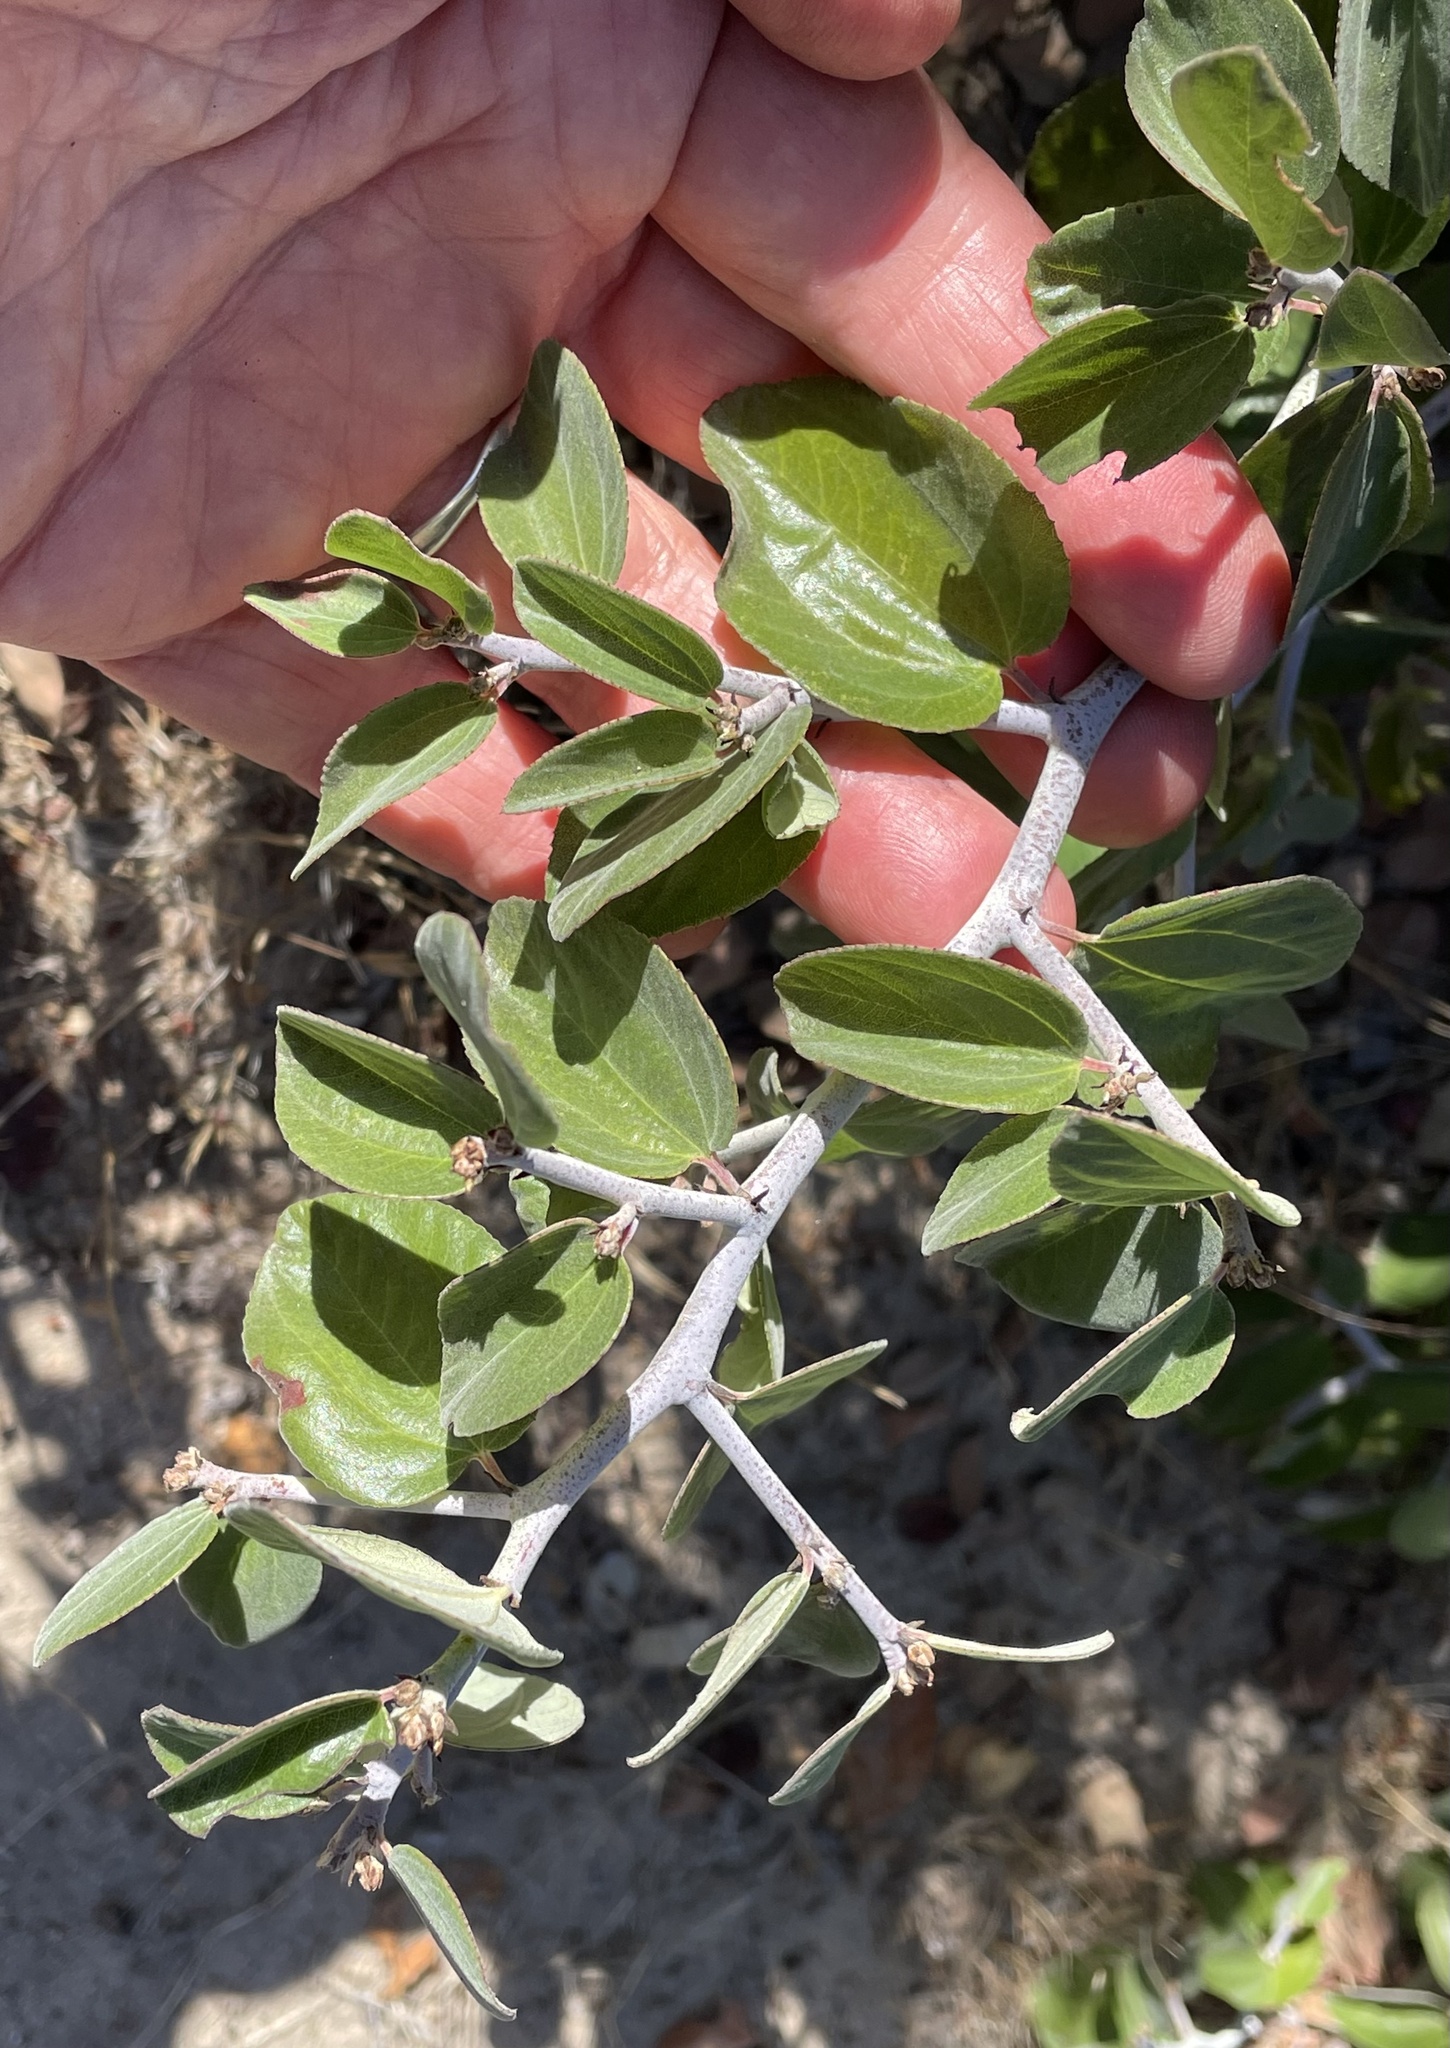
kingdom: Plantae
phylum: Tracheophyta
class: Magnoliopsida
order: Rosales
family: Rhamnaceae
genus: Ceanothus
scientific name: Ceanothus incanus
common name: Coast whitethorn
